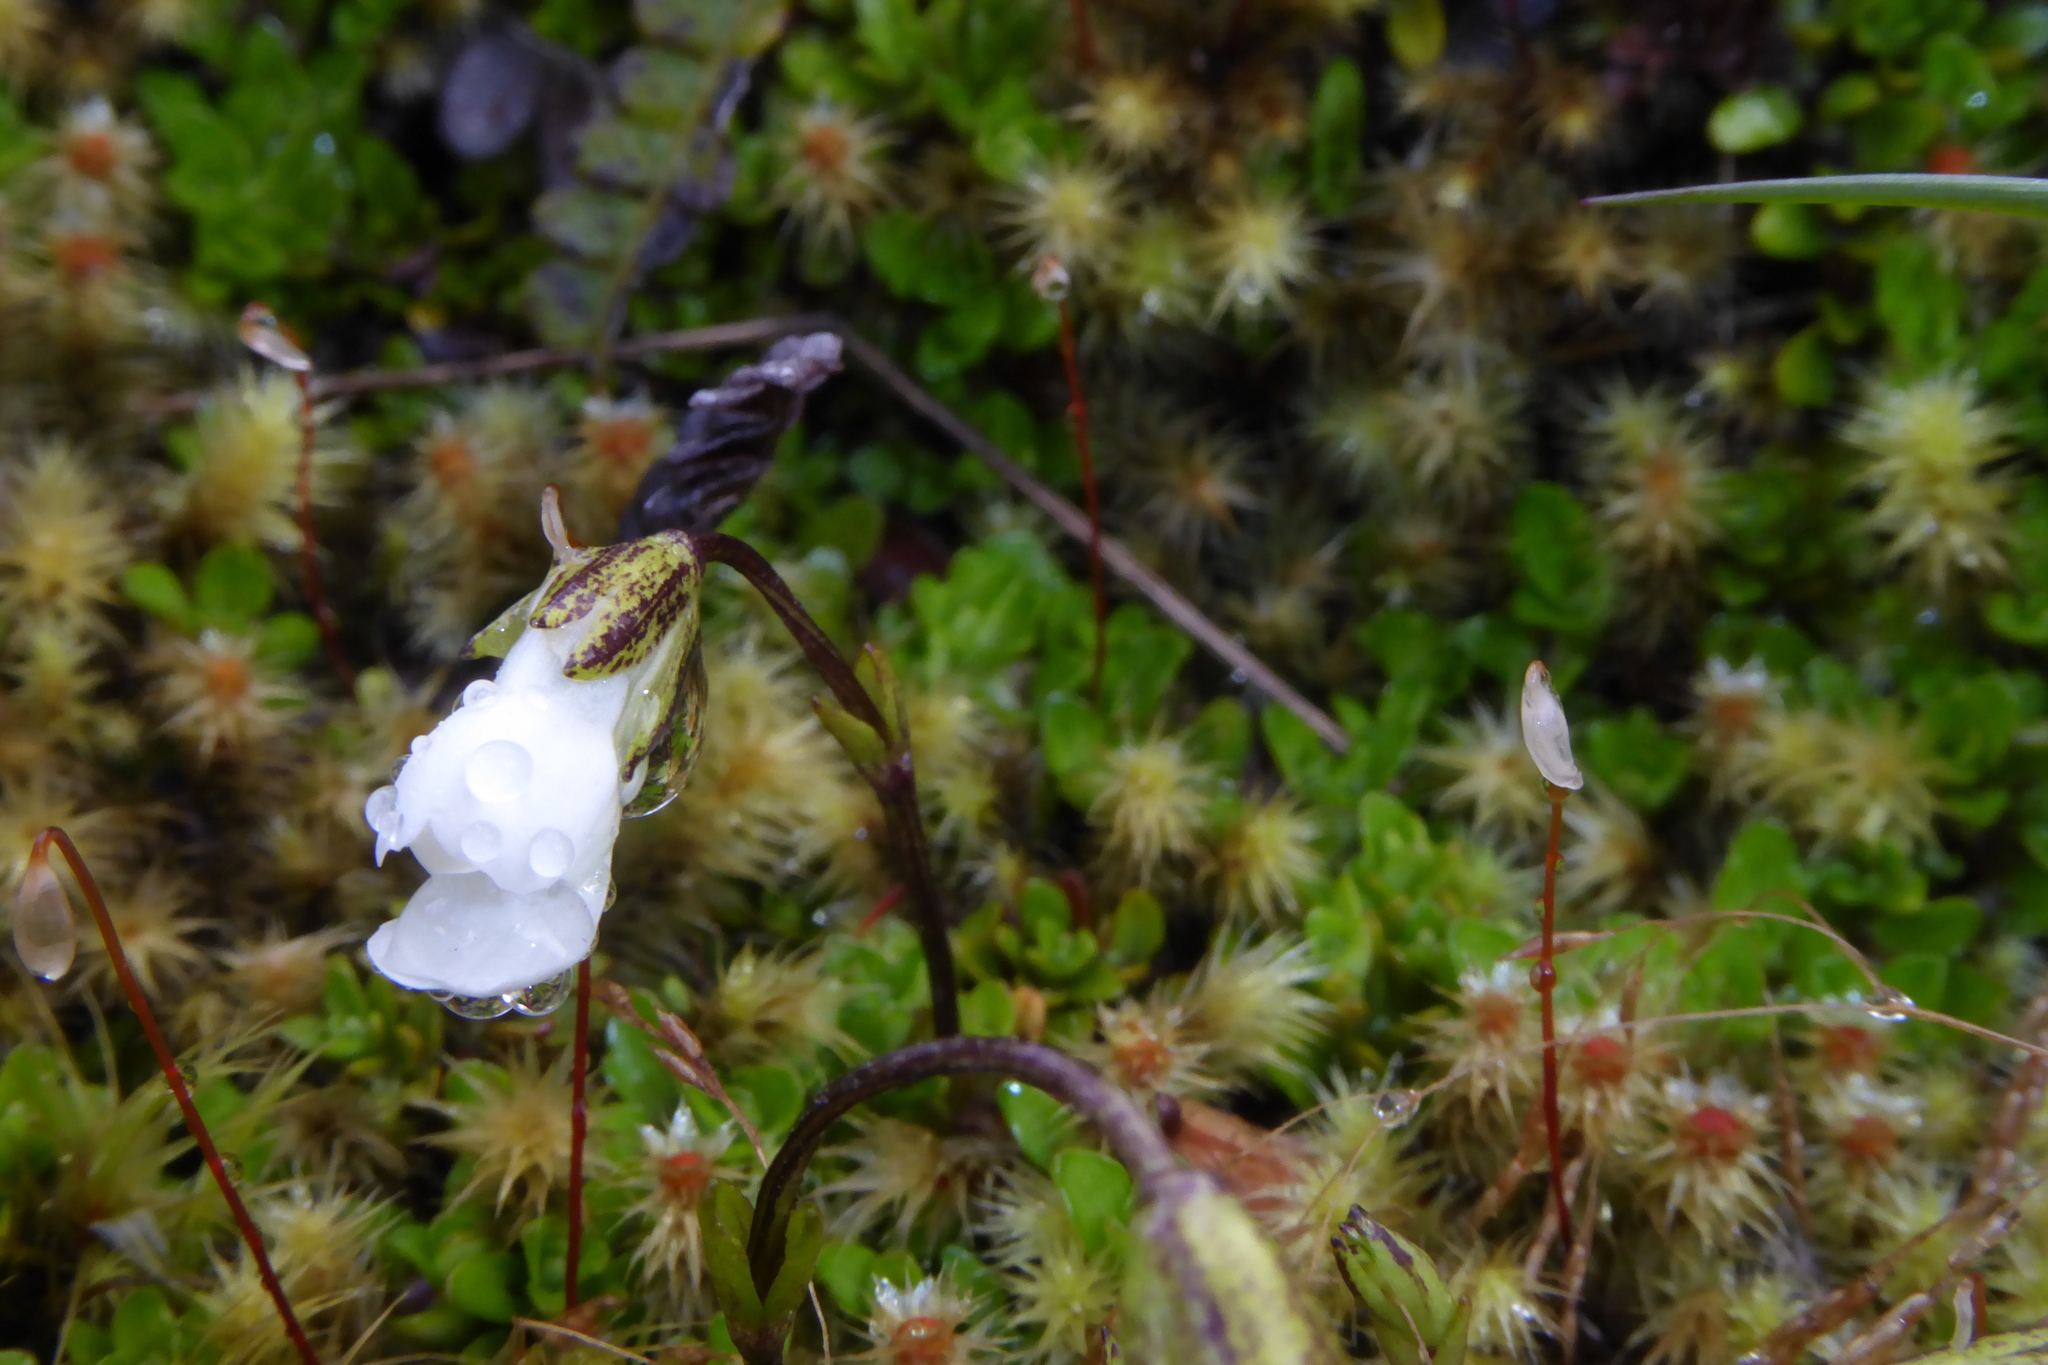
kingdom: Plantae
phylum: Tracheophyta
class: Magnoliopsida
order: Lamiales
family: Plantaginaceae
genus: Ourisia
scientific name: Ourisia caespitosa
